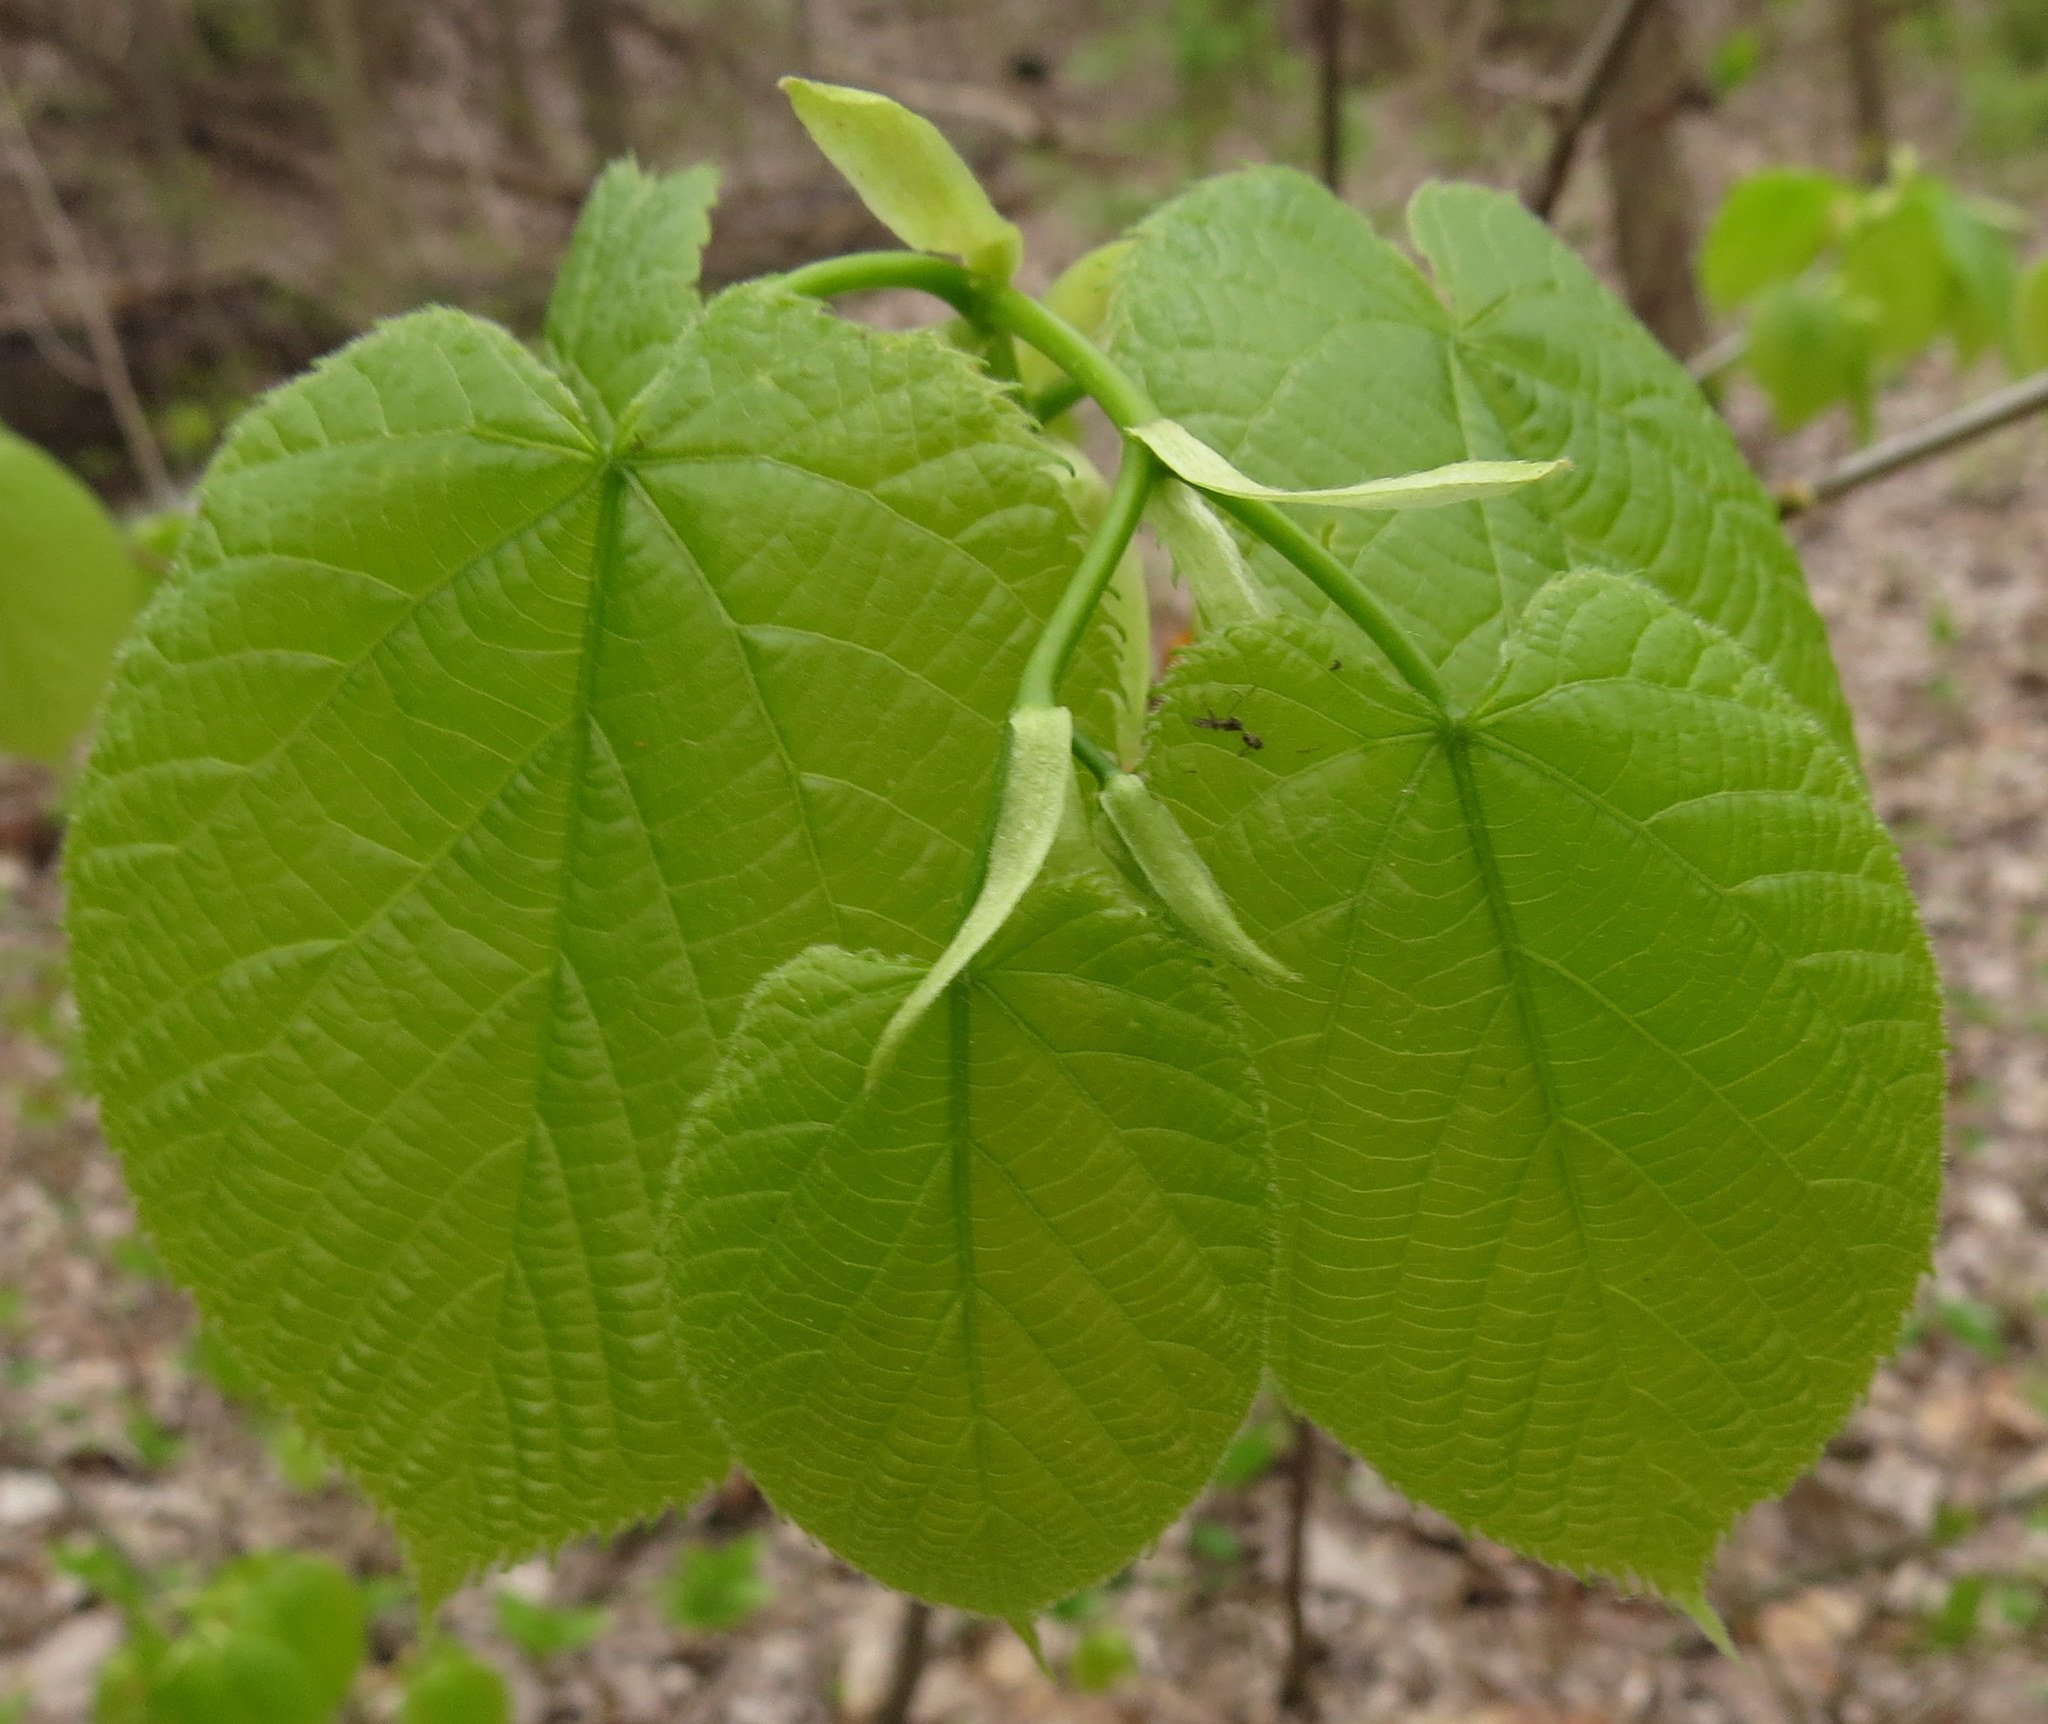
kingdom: Plantae
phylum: Tracheophyta
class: Magnoliopsida
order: Malvales
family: Malvaceae
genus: Tilia
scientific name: Tilia americana
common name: Basswood
